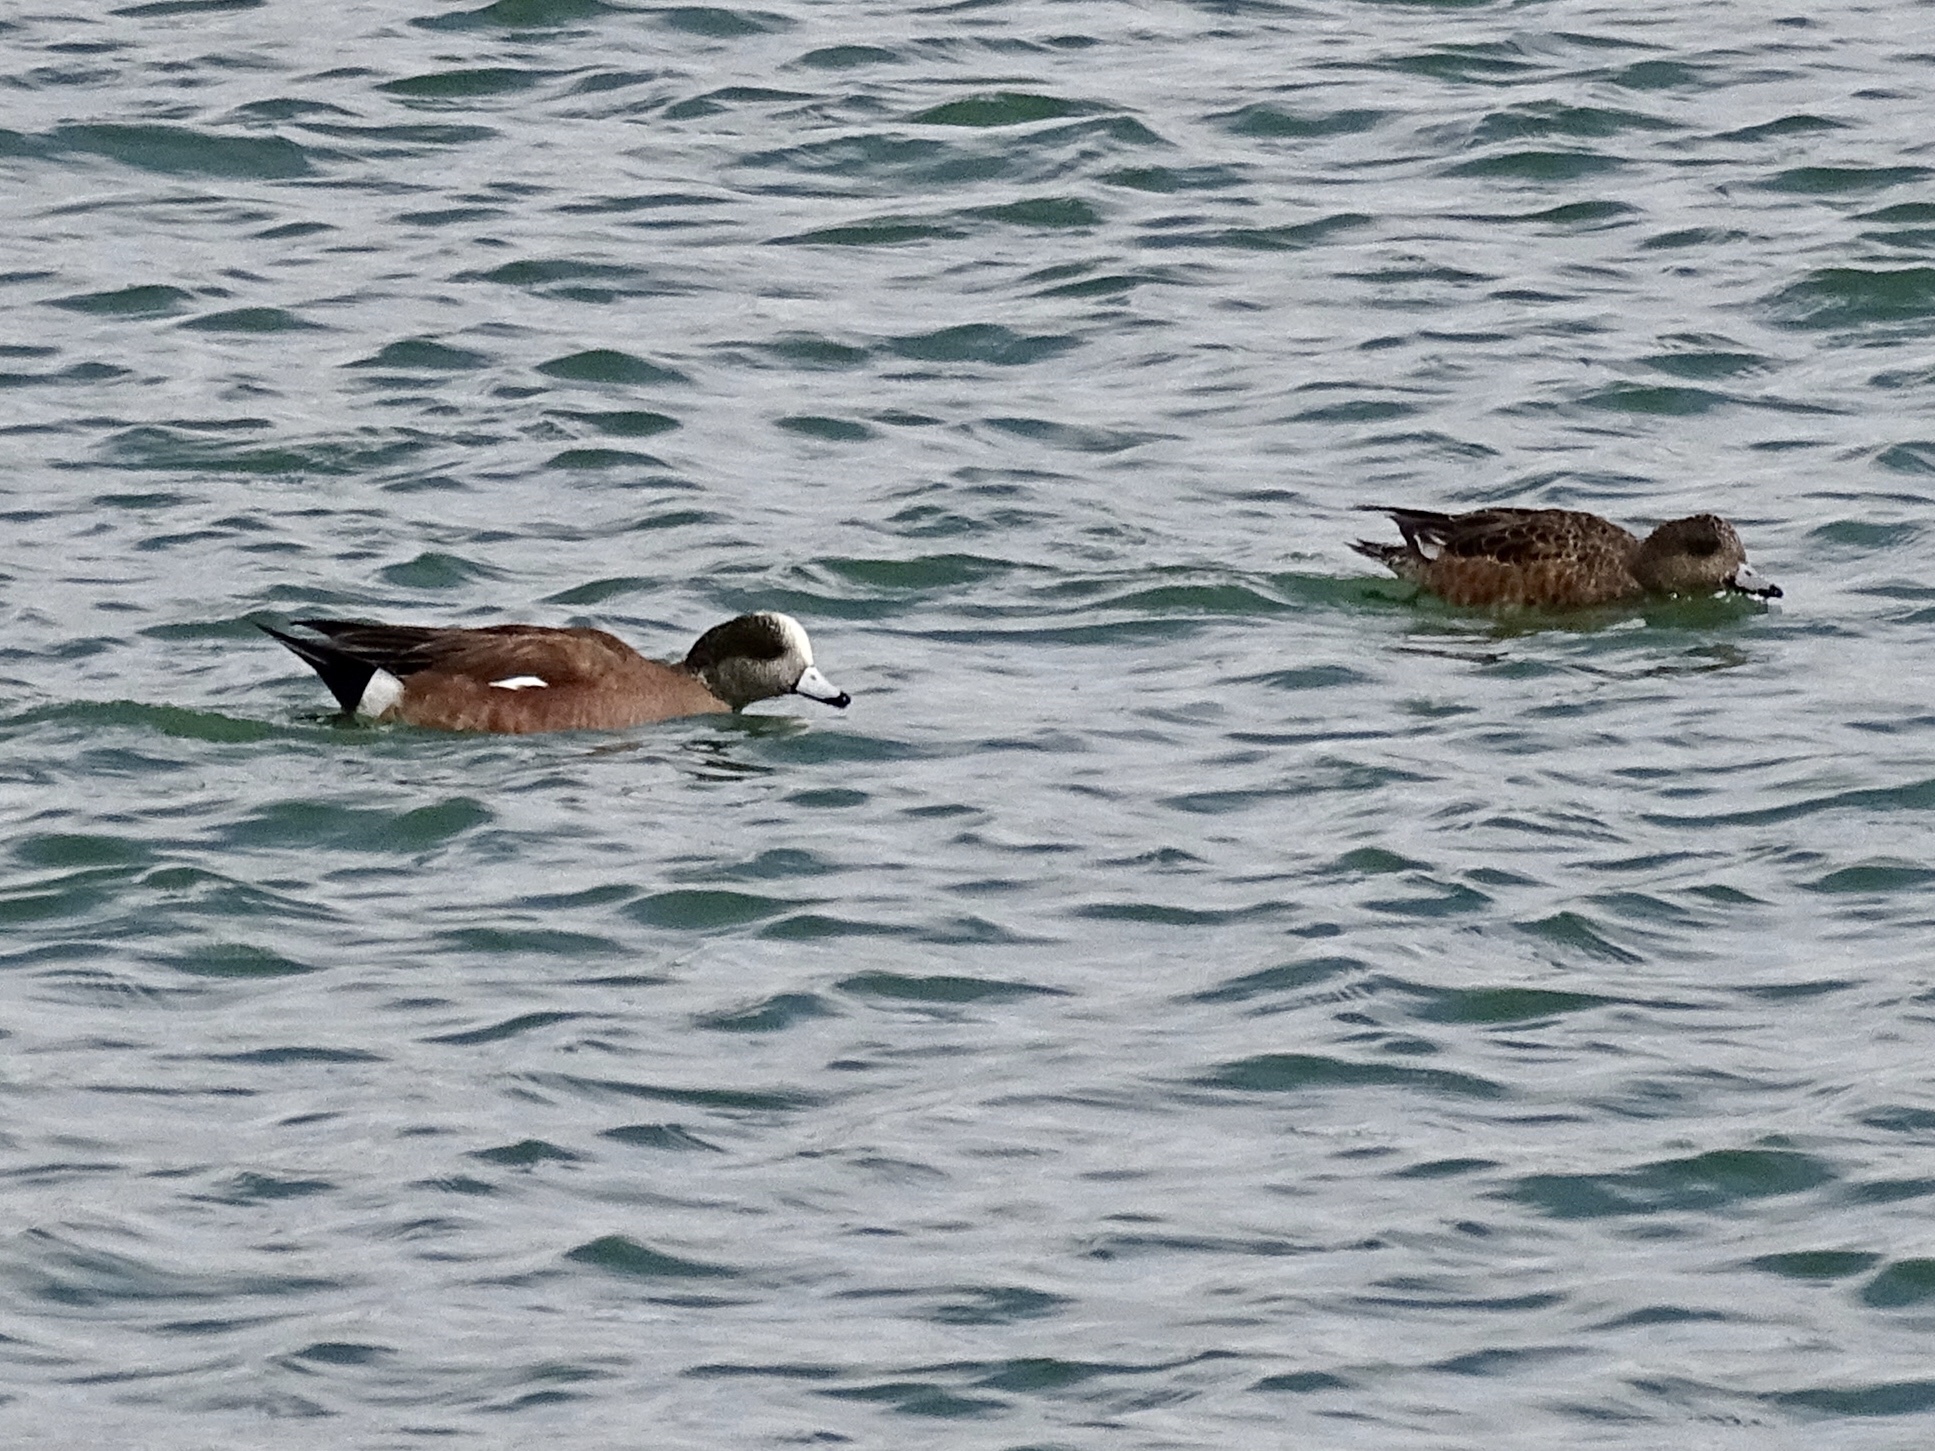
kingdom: Animalia
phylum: Chordata
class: Aves
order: Anseriformes
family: Anatidae
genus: Mareca
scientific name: Mareca americana
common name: American wigeon
